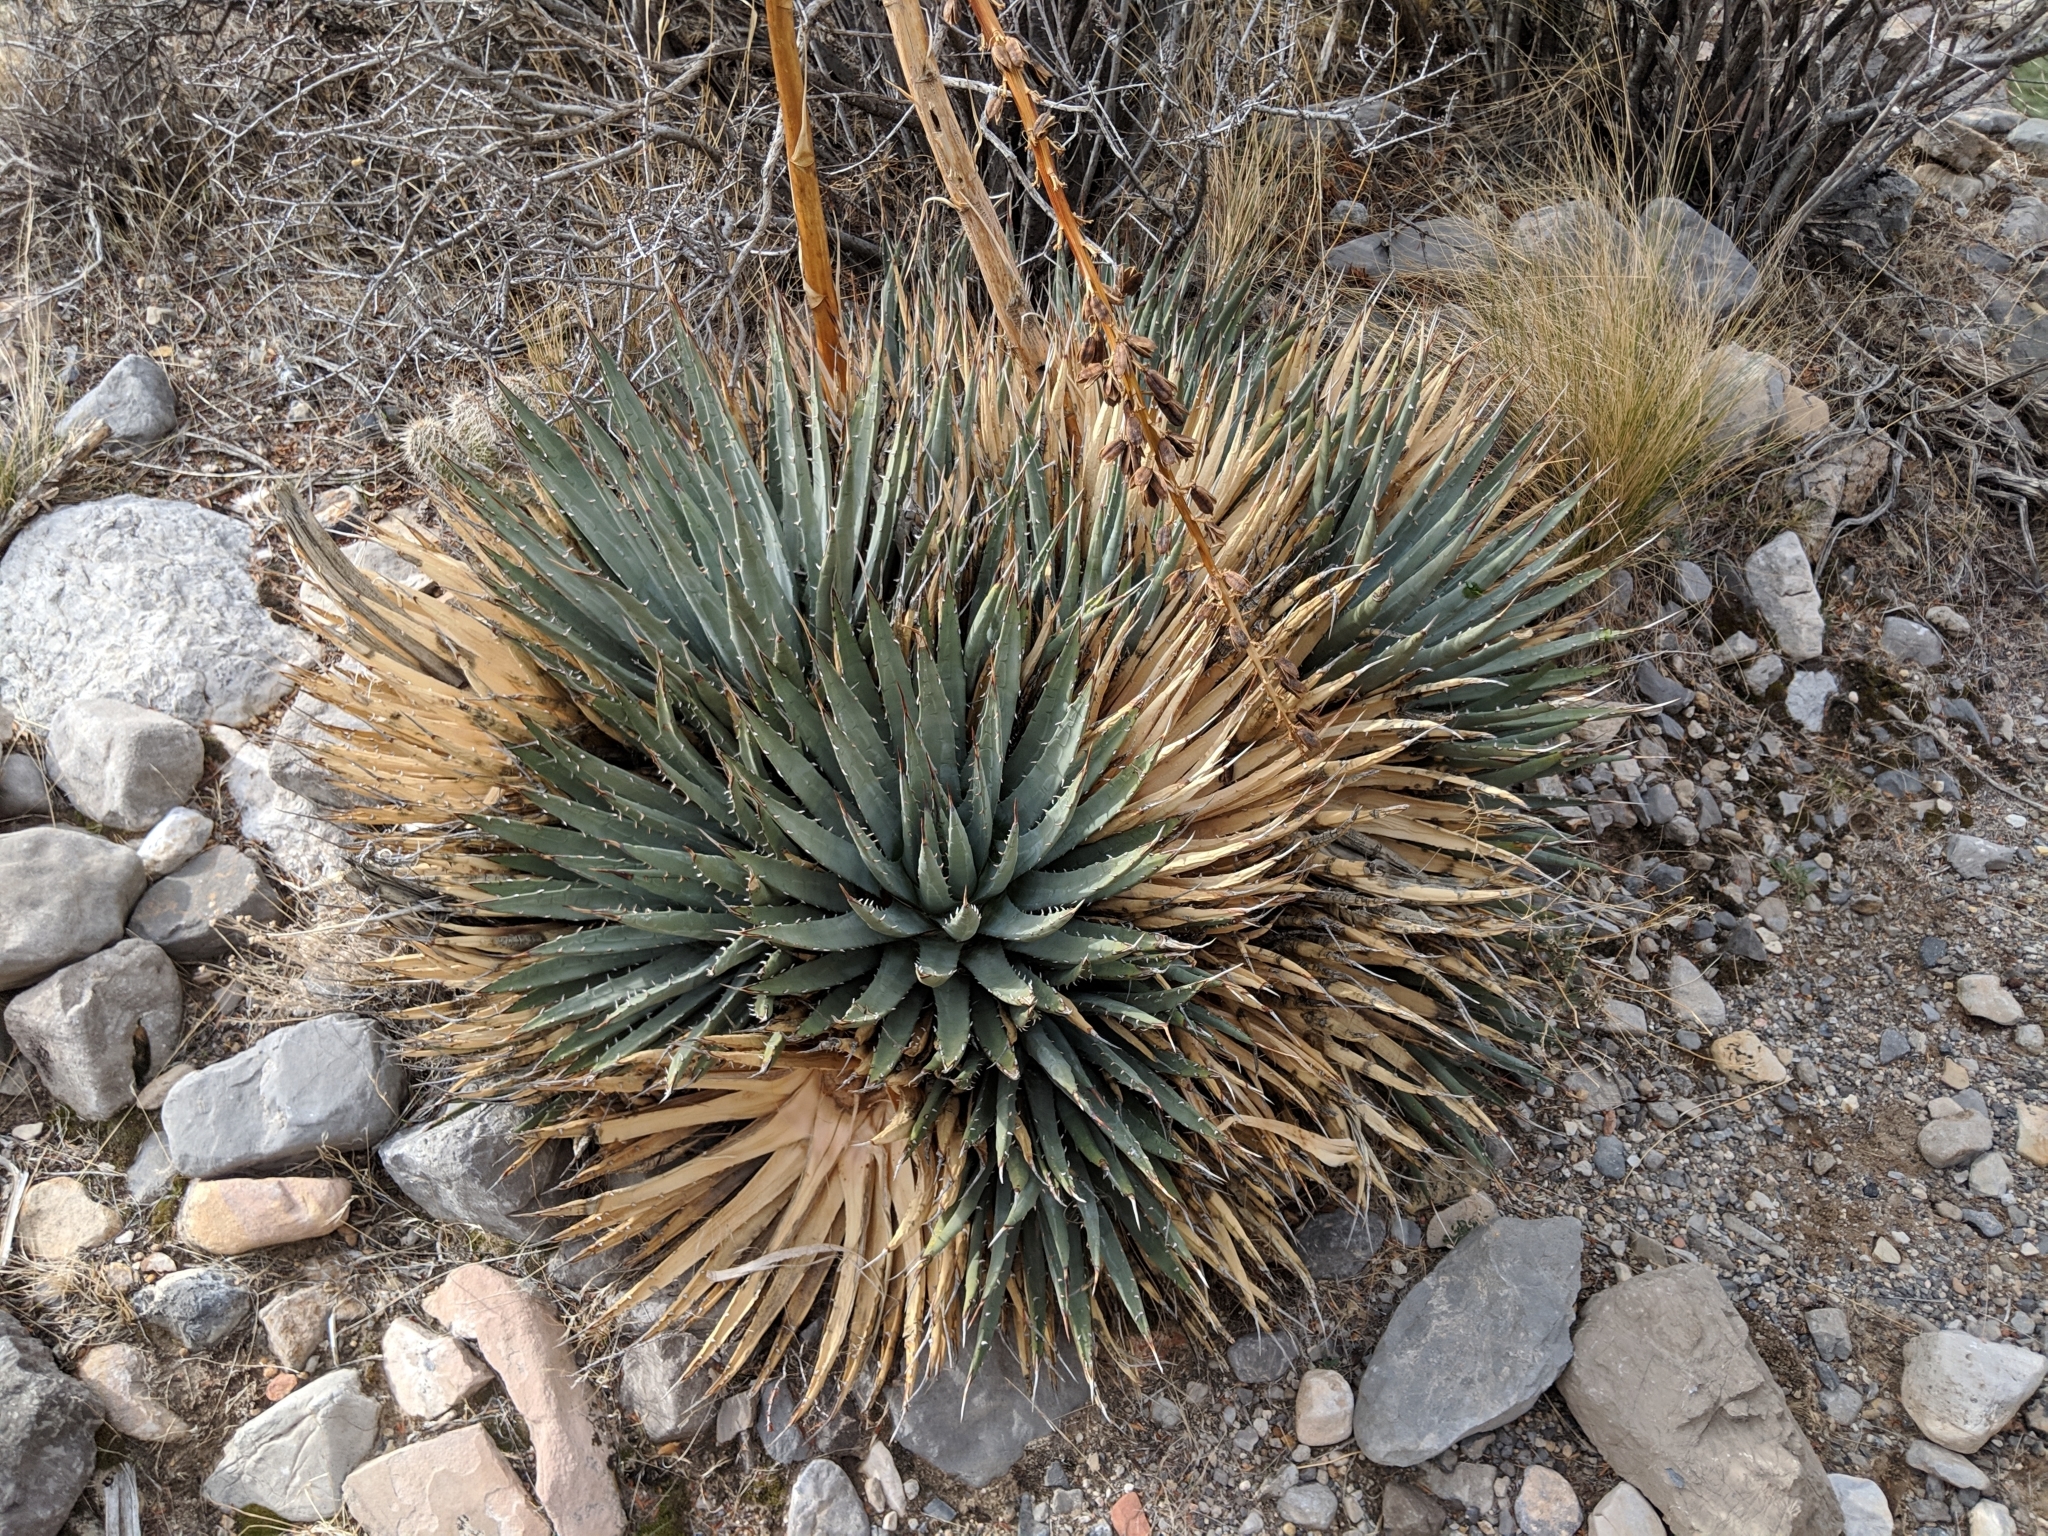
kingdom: Plantae
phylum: Tracheophyta
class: Liliopsida
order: Asparagales
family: Asparagaceae
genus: Agave
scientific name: Agave utahensis
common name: Utah agave
